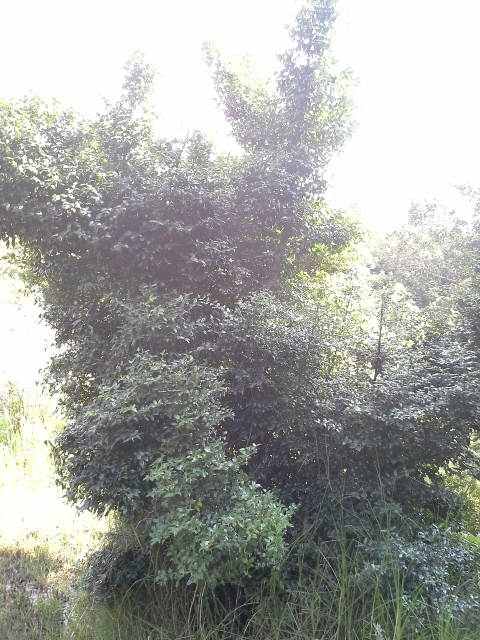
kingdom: Plantae
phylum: Tracheophyta
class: Magnoliopsida
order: Icacinales
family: Icacinaceae
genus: Cassinopsis
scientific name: Cassinopsis ilicifolia
